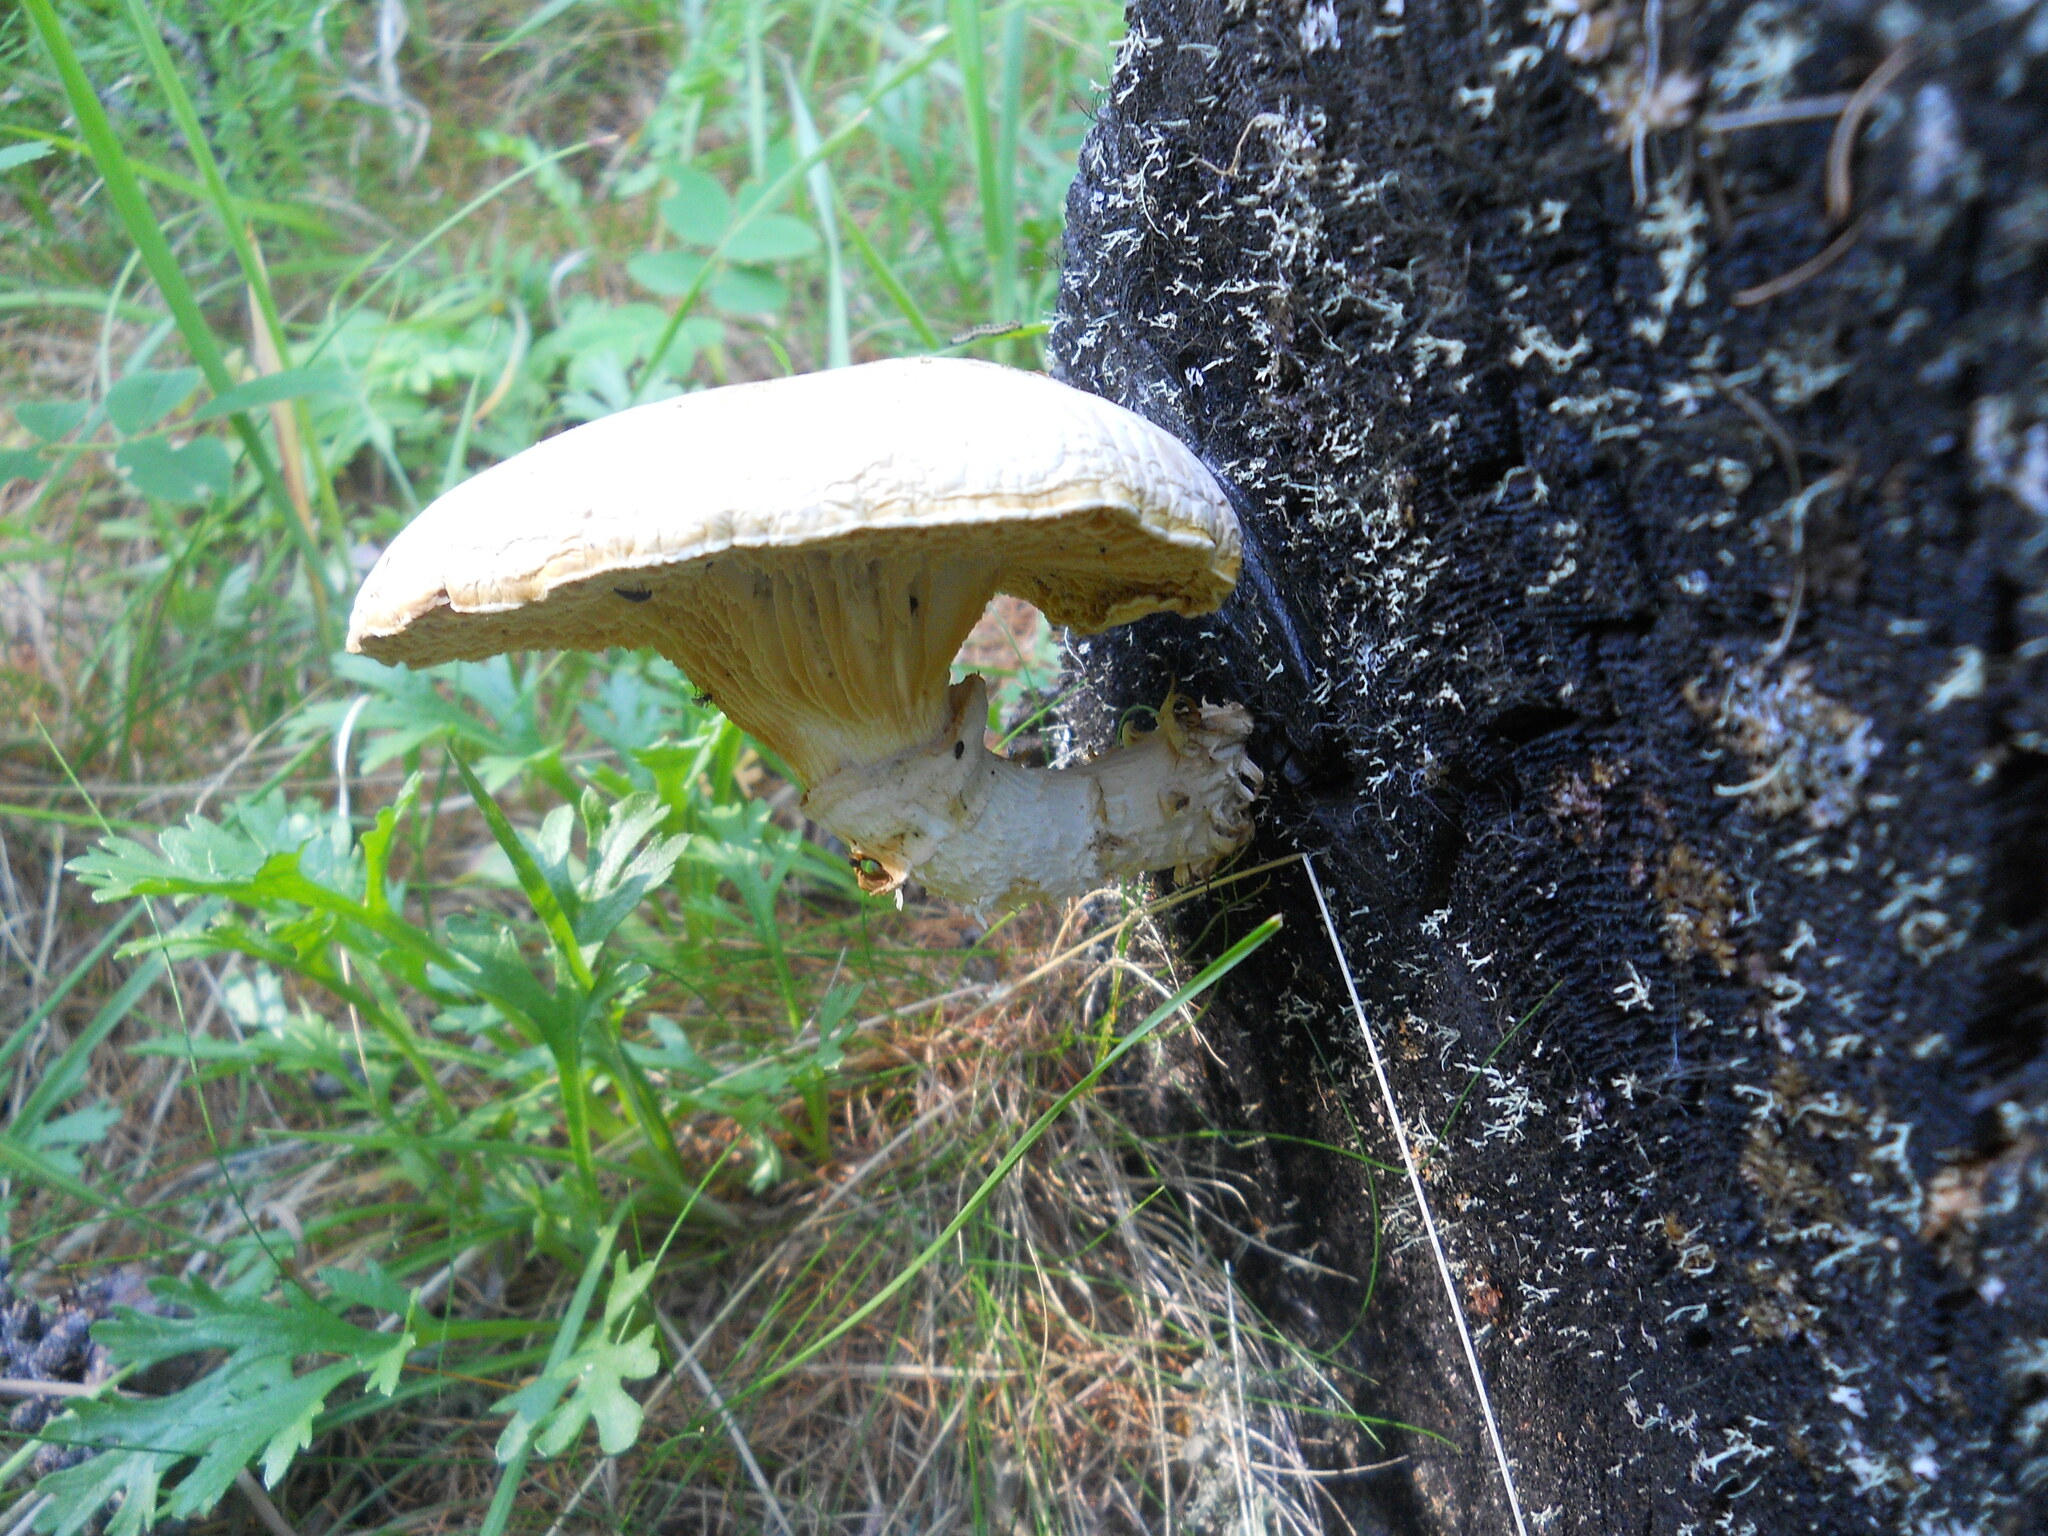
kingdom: Fungi
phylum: Basidiomycota
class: Agaricomycetes
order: Gloeophyllales
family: Gloeophyllaceae
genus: Neolentinus
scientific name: Neolentinus lepideus
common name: Scaly sawgill
